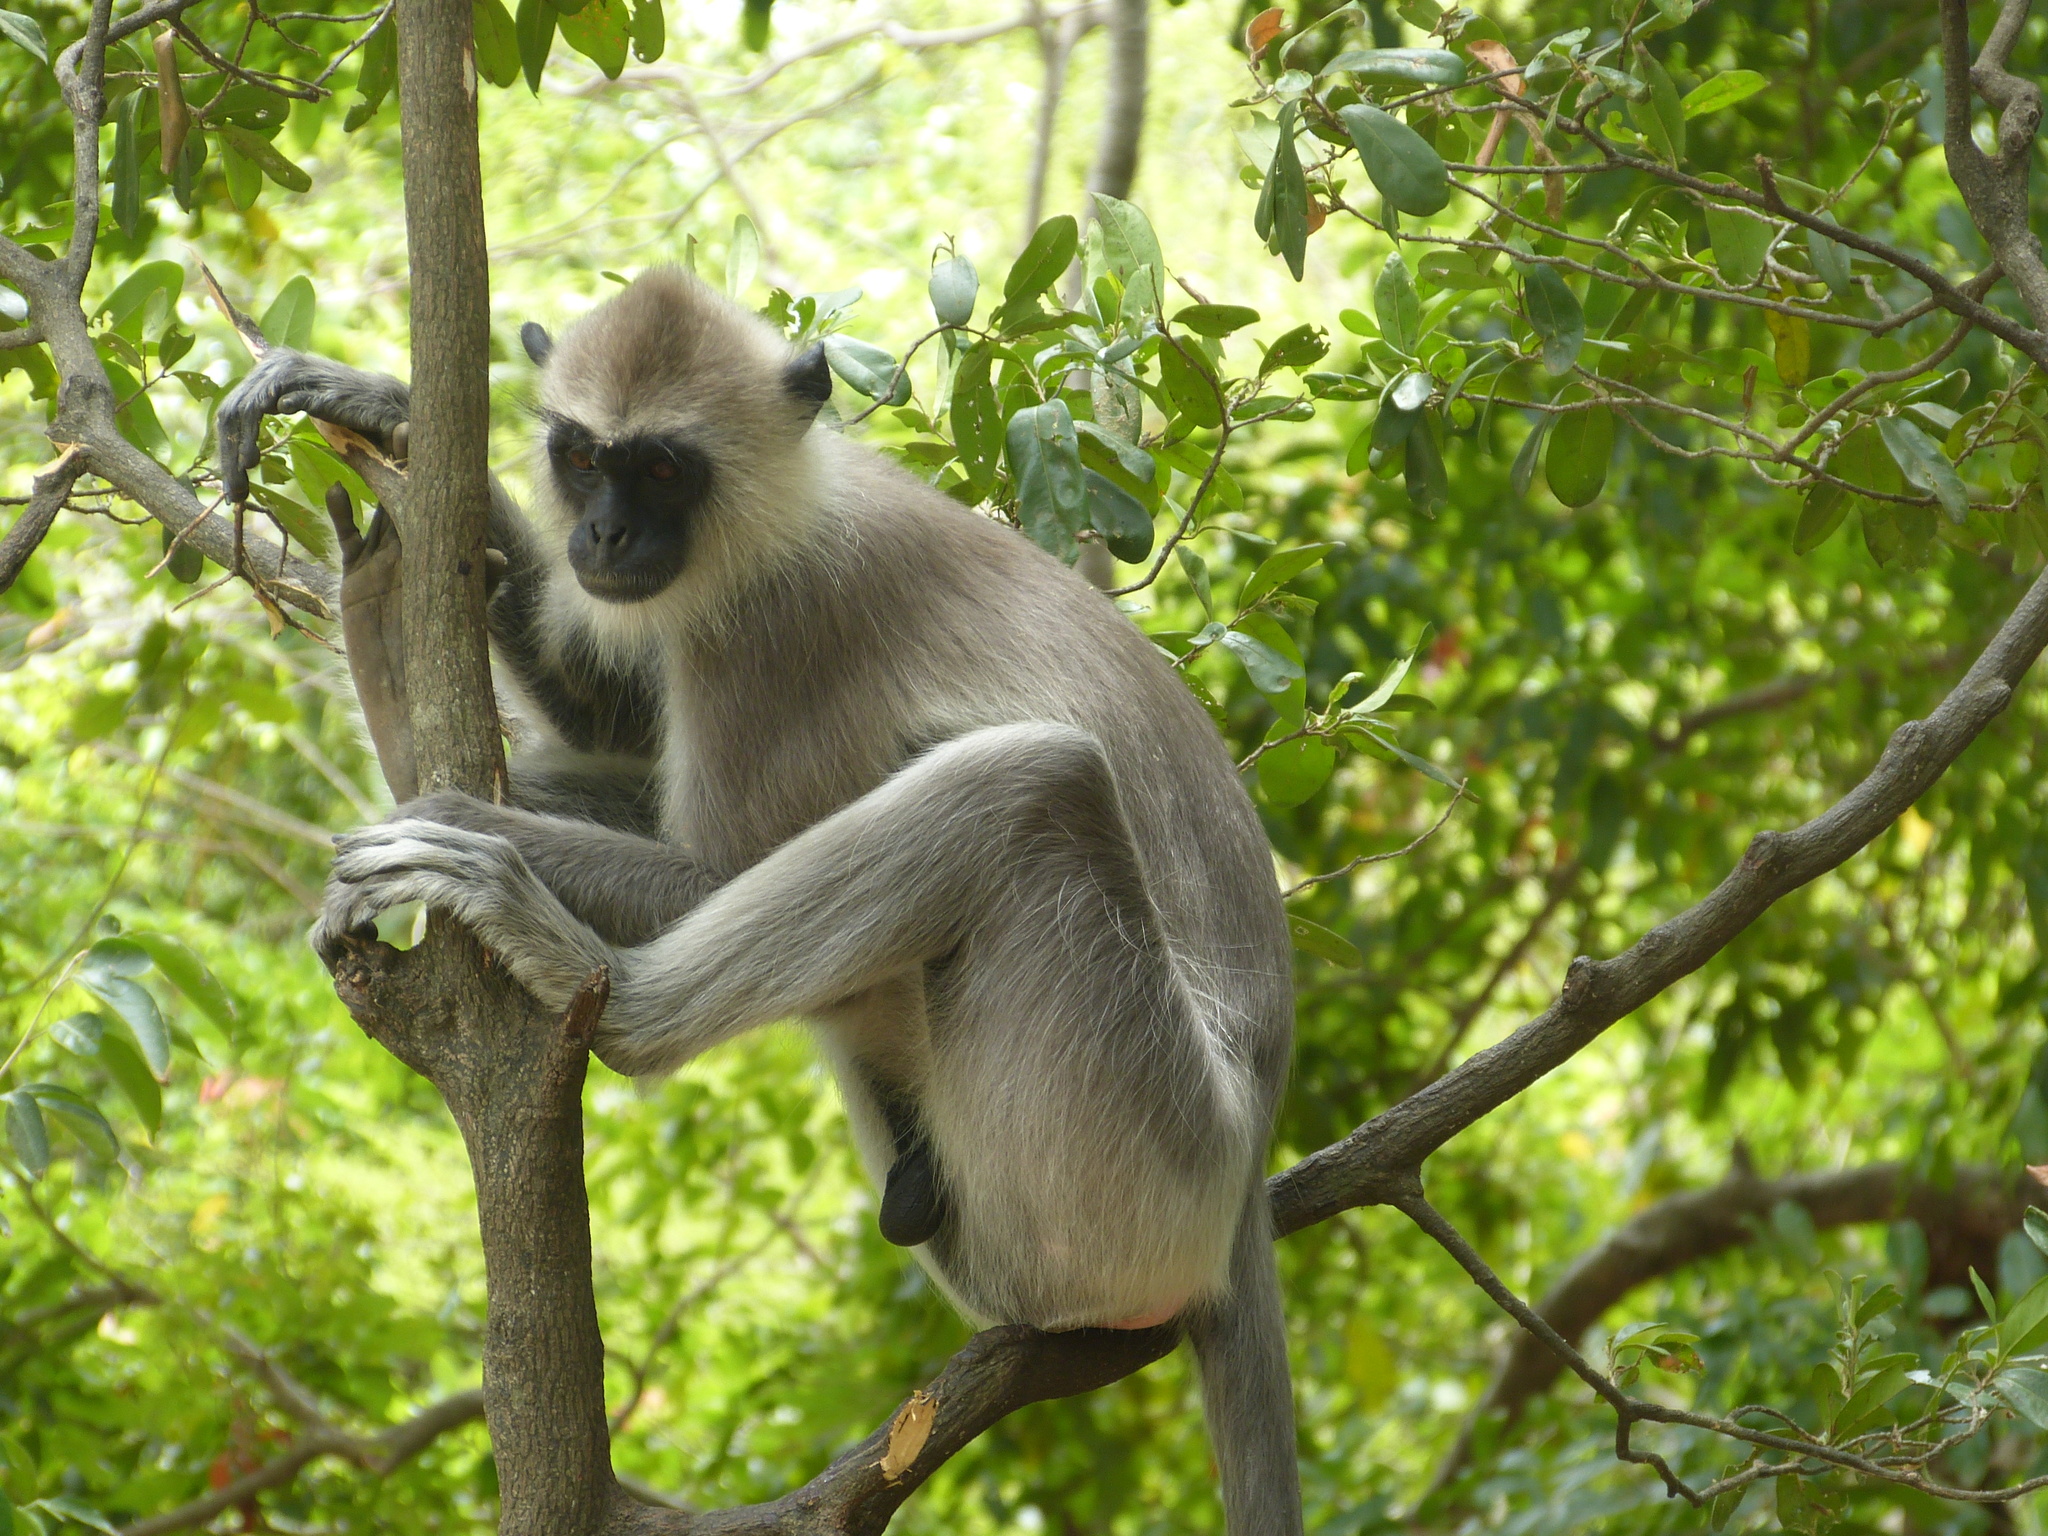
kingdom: Animalia
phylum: Chordata
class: Mammalia
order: Primates
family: Cercopithecidae
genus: Semnopithecus
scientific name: Semnopithecus priam
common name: Tufted gray langur
